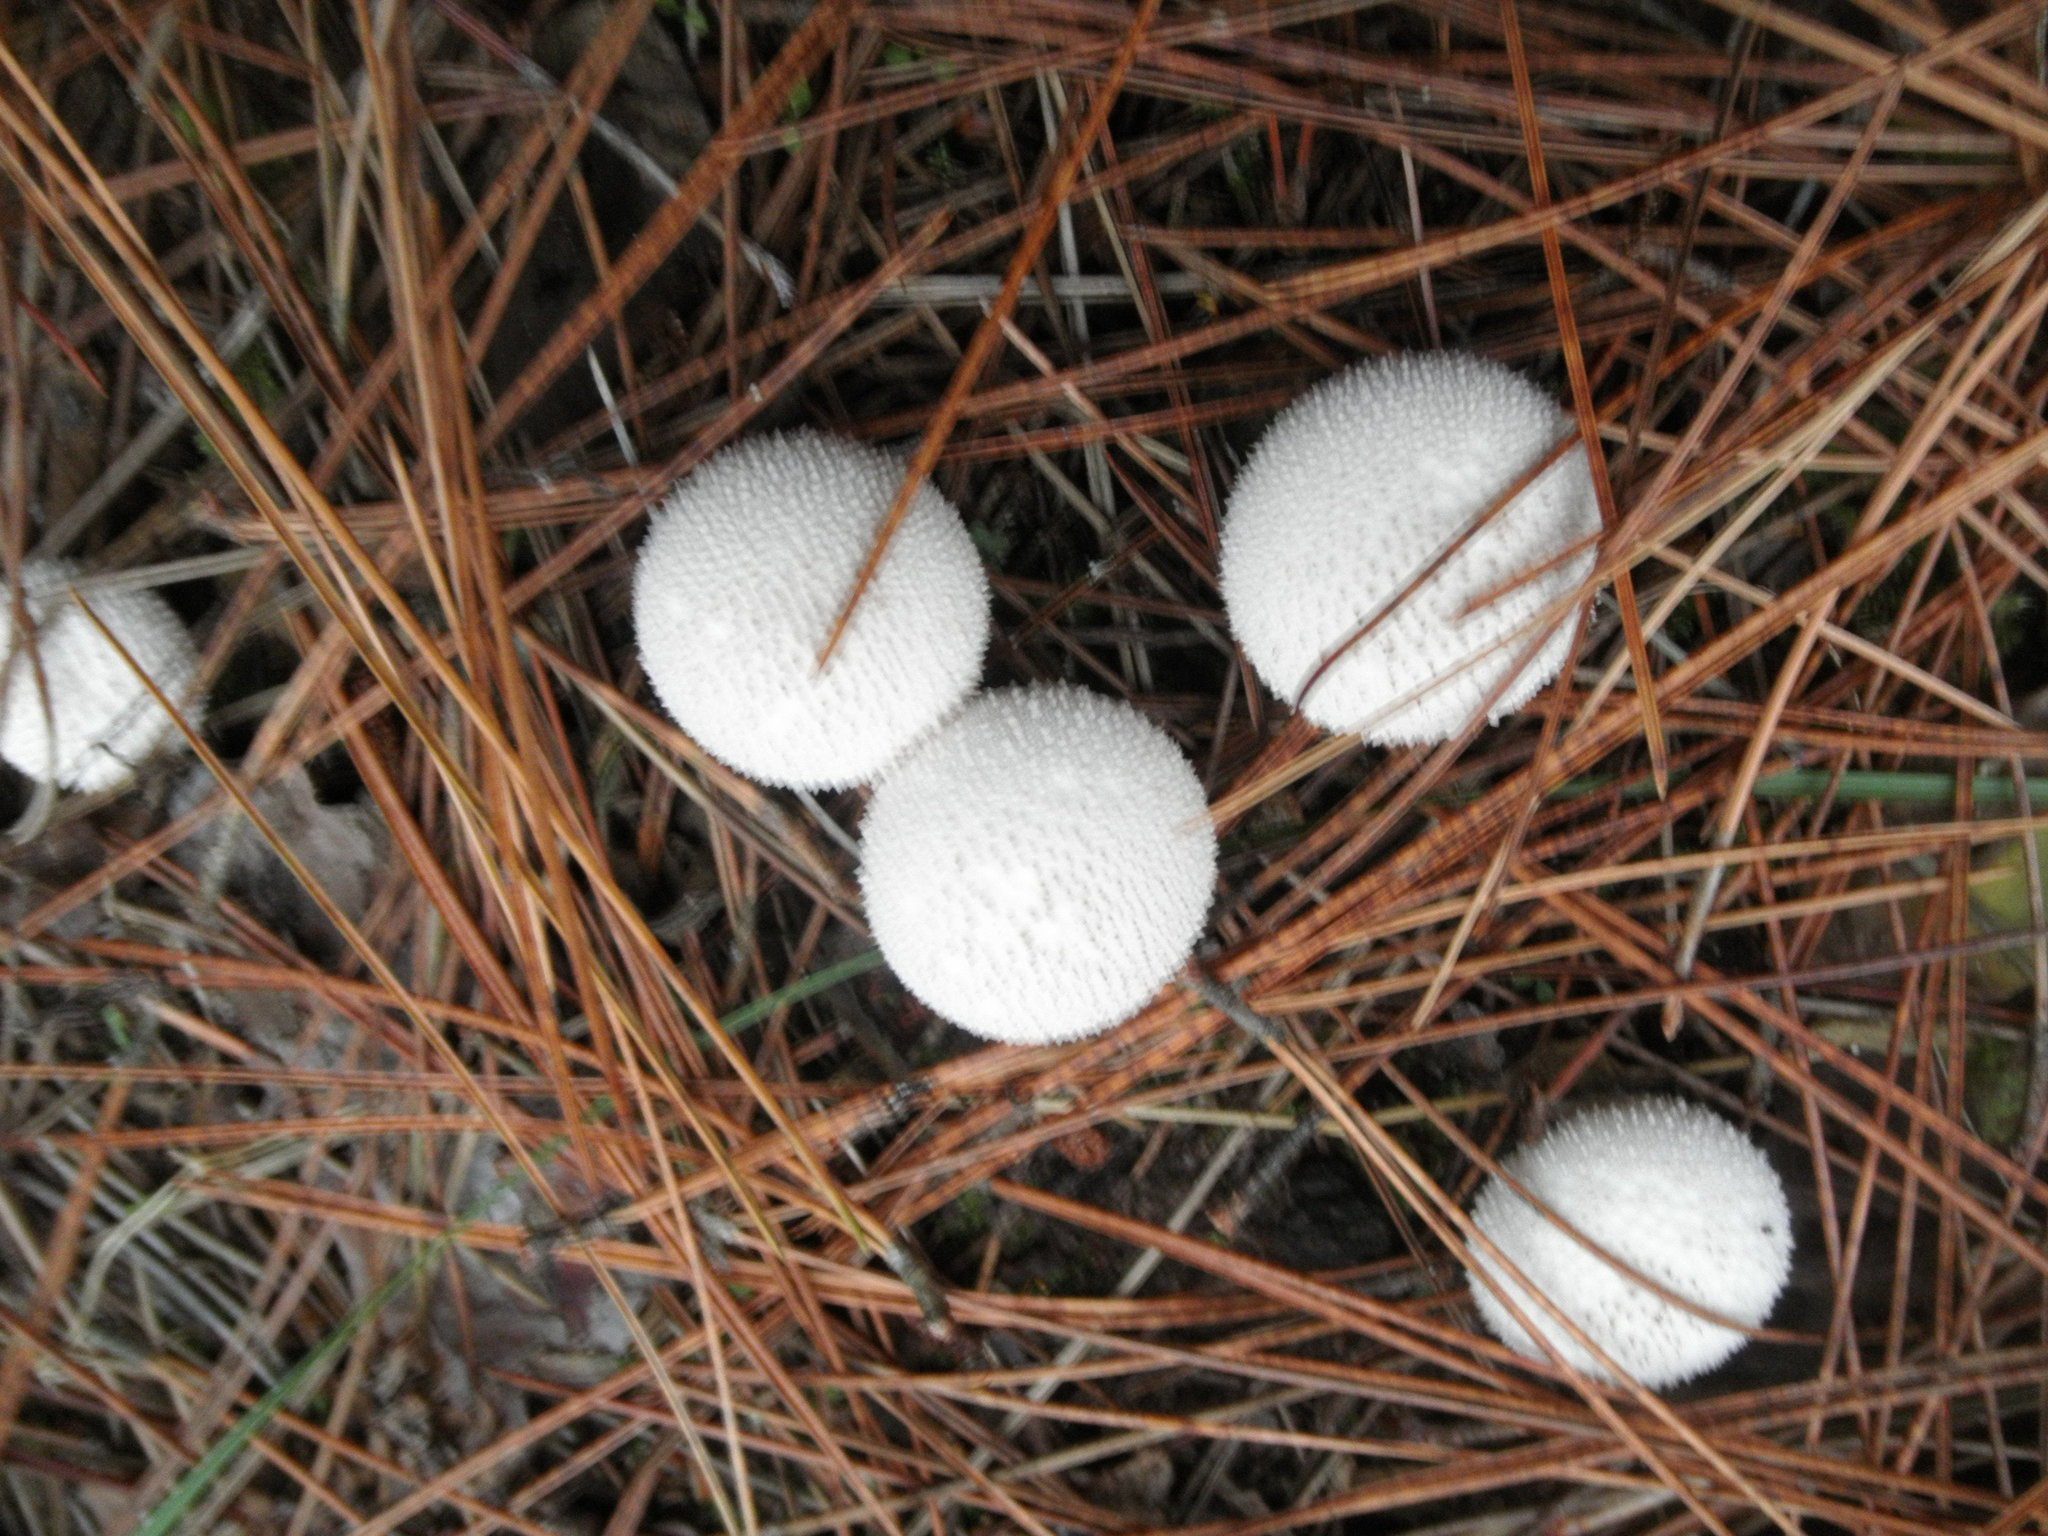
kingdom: Fungi
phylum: Basidiomycota
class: Agaricomycetes
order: Agaricales
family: Lycoperdaceae
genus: Lycoperdon
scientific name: Lycoperdon perlatum
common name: Common puffball
